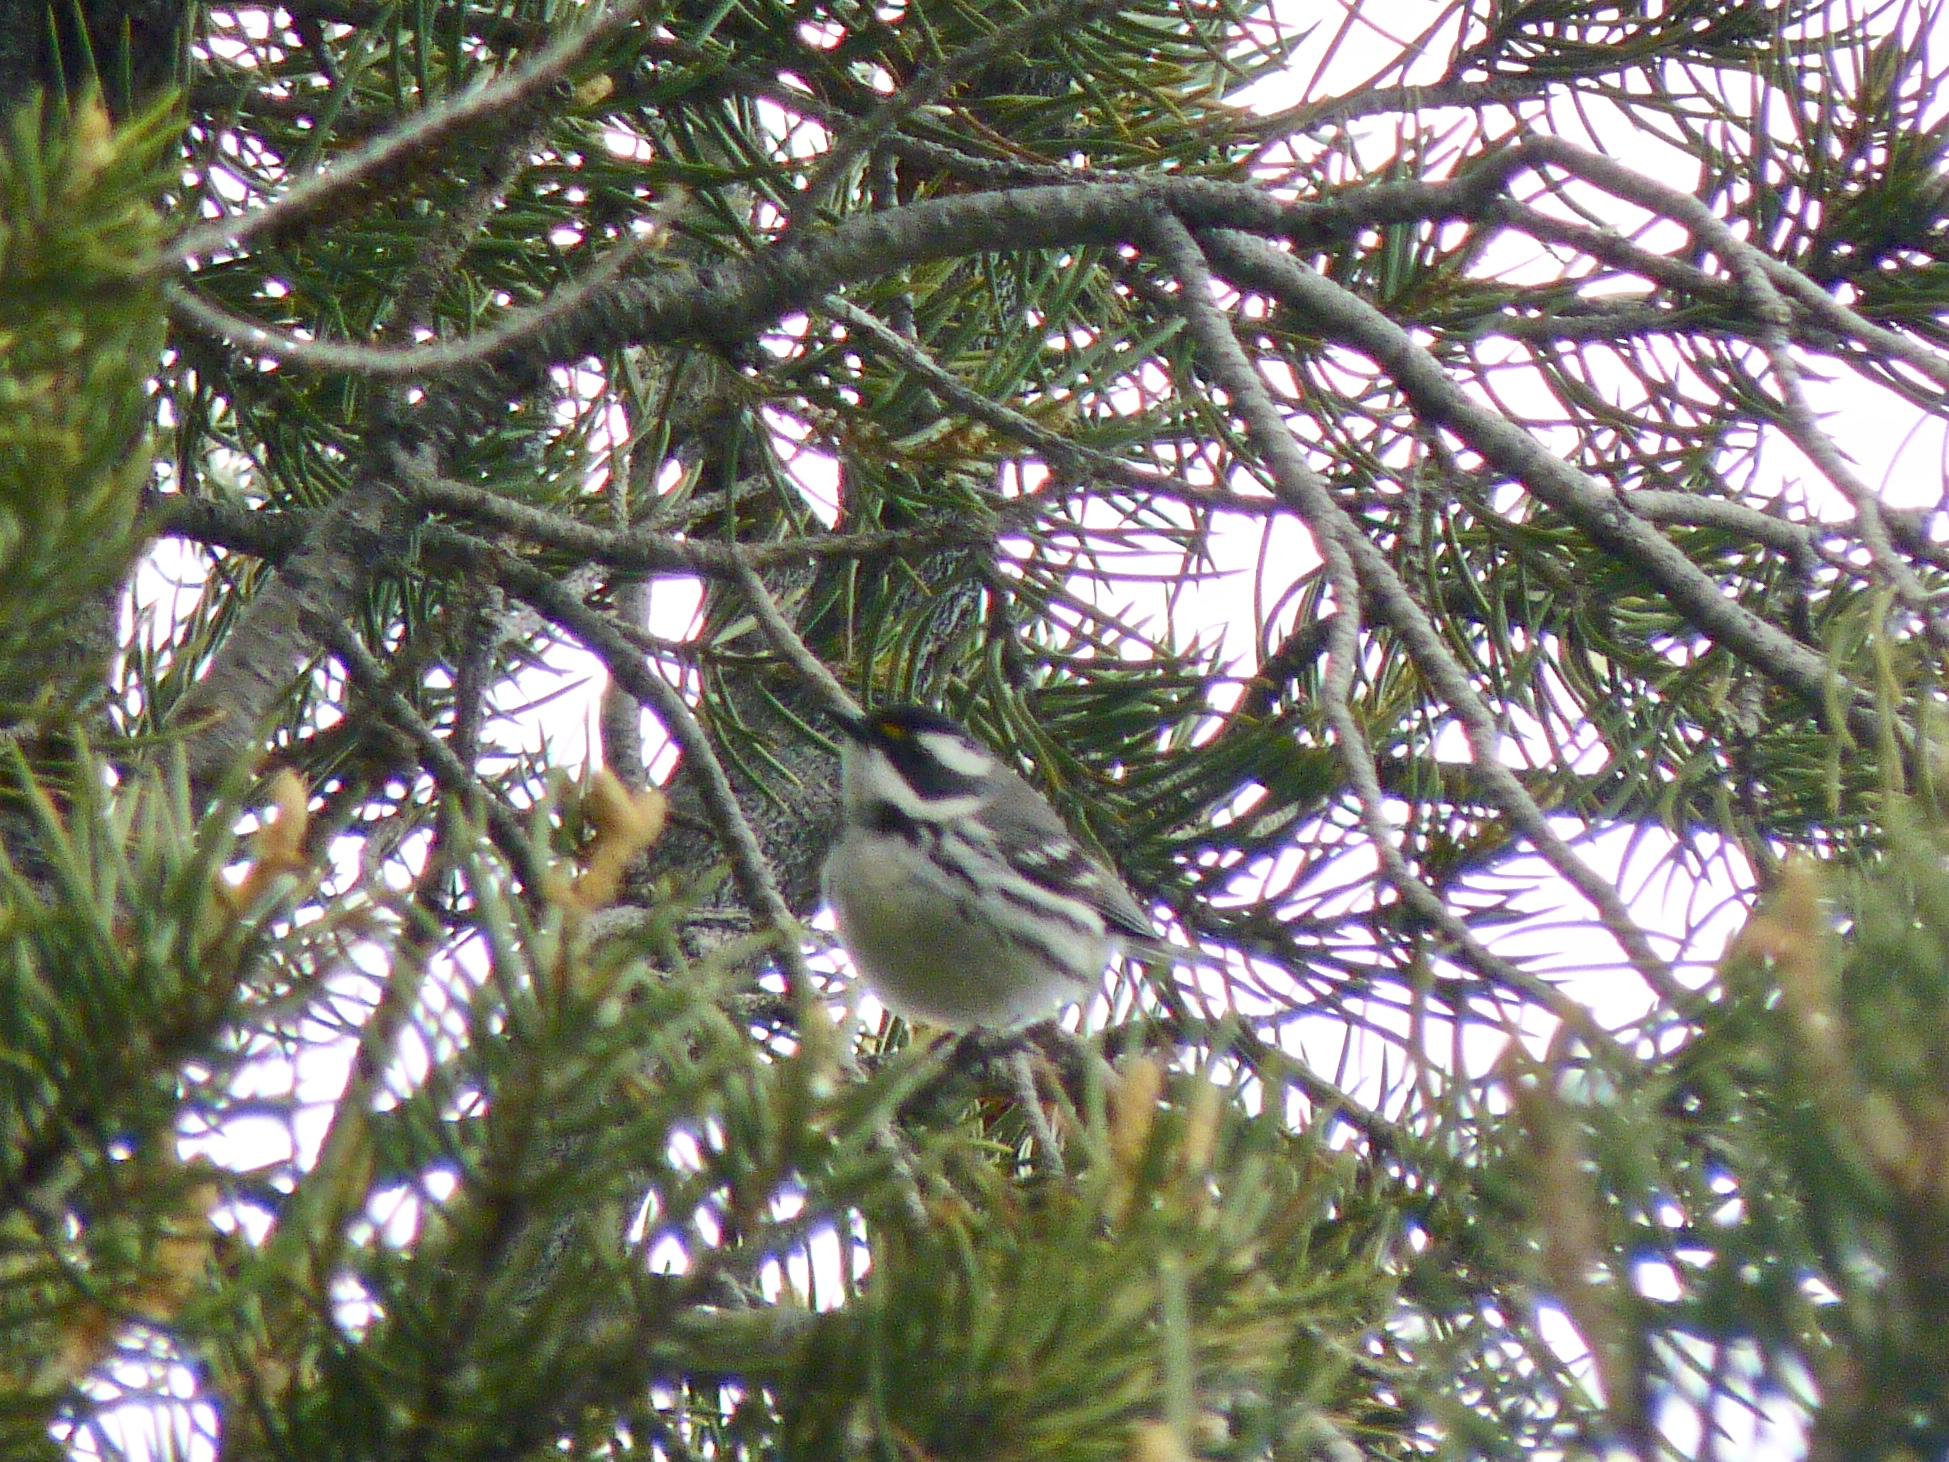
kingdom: Animalia
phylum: Chordata
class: Aves
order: Passeriformes
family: Parulidae
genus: Setophaga
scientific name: Setophaga nigrescens
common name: Black-throated gray warbler
